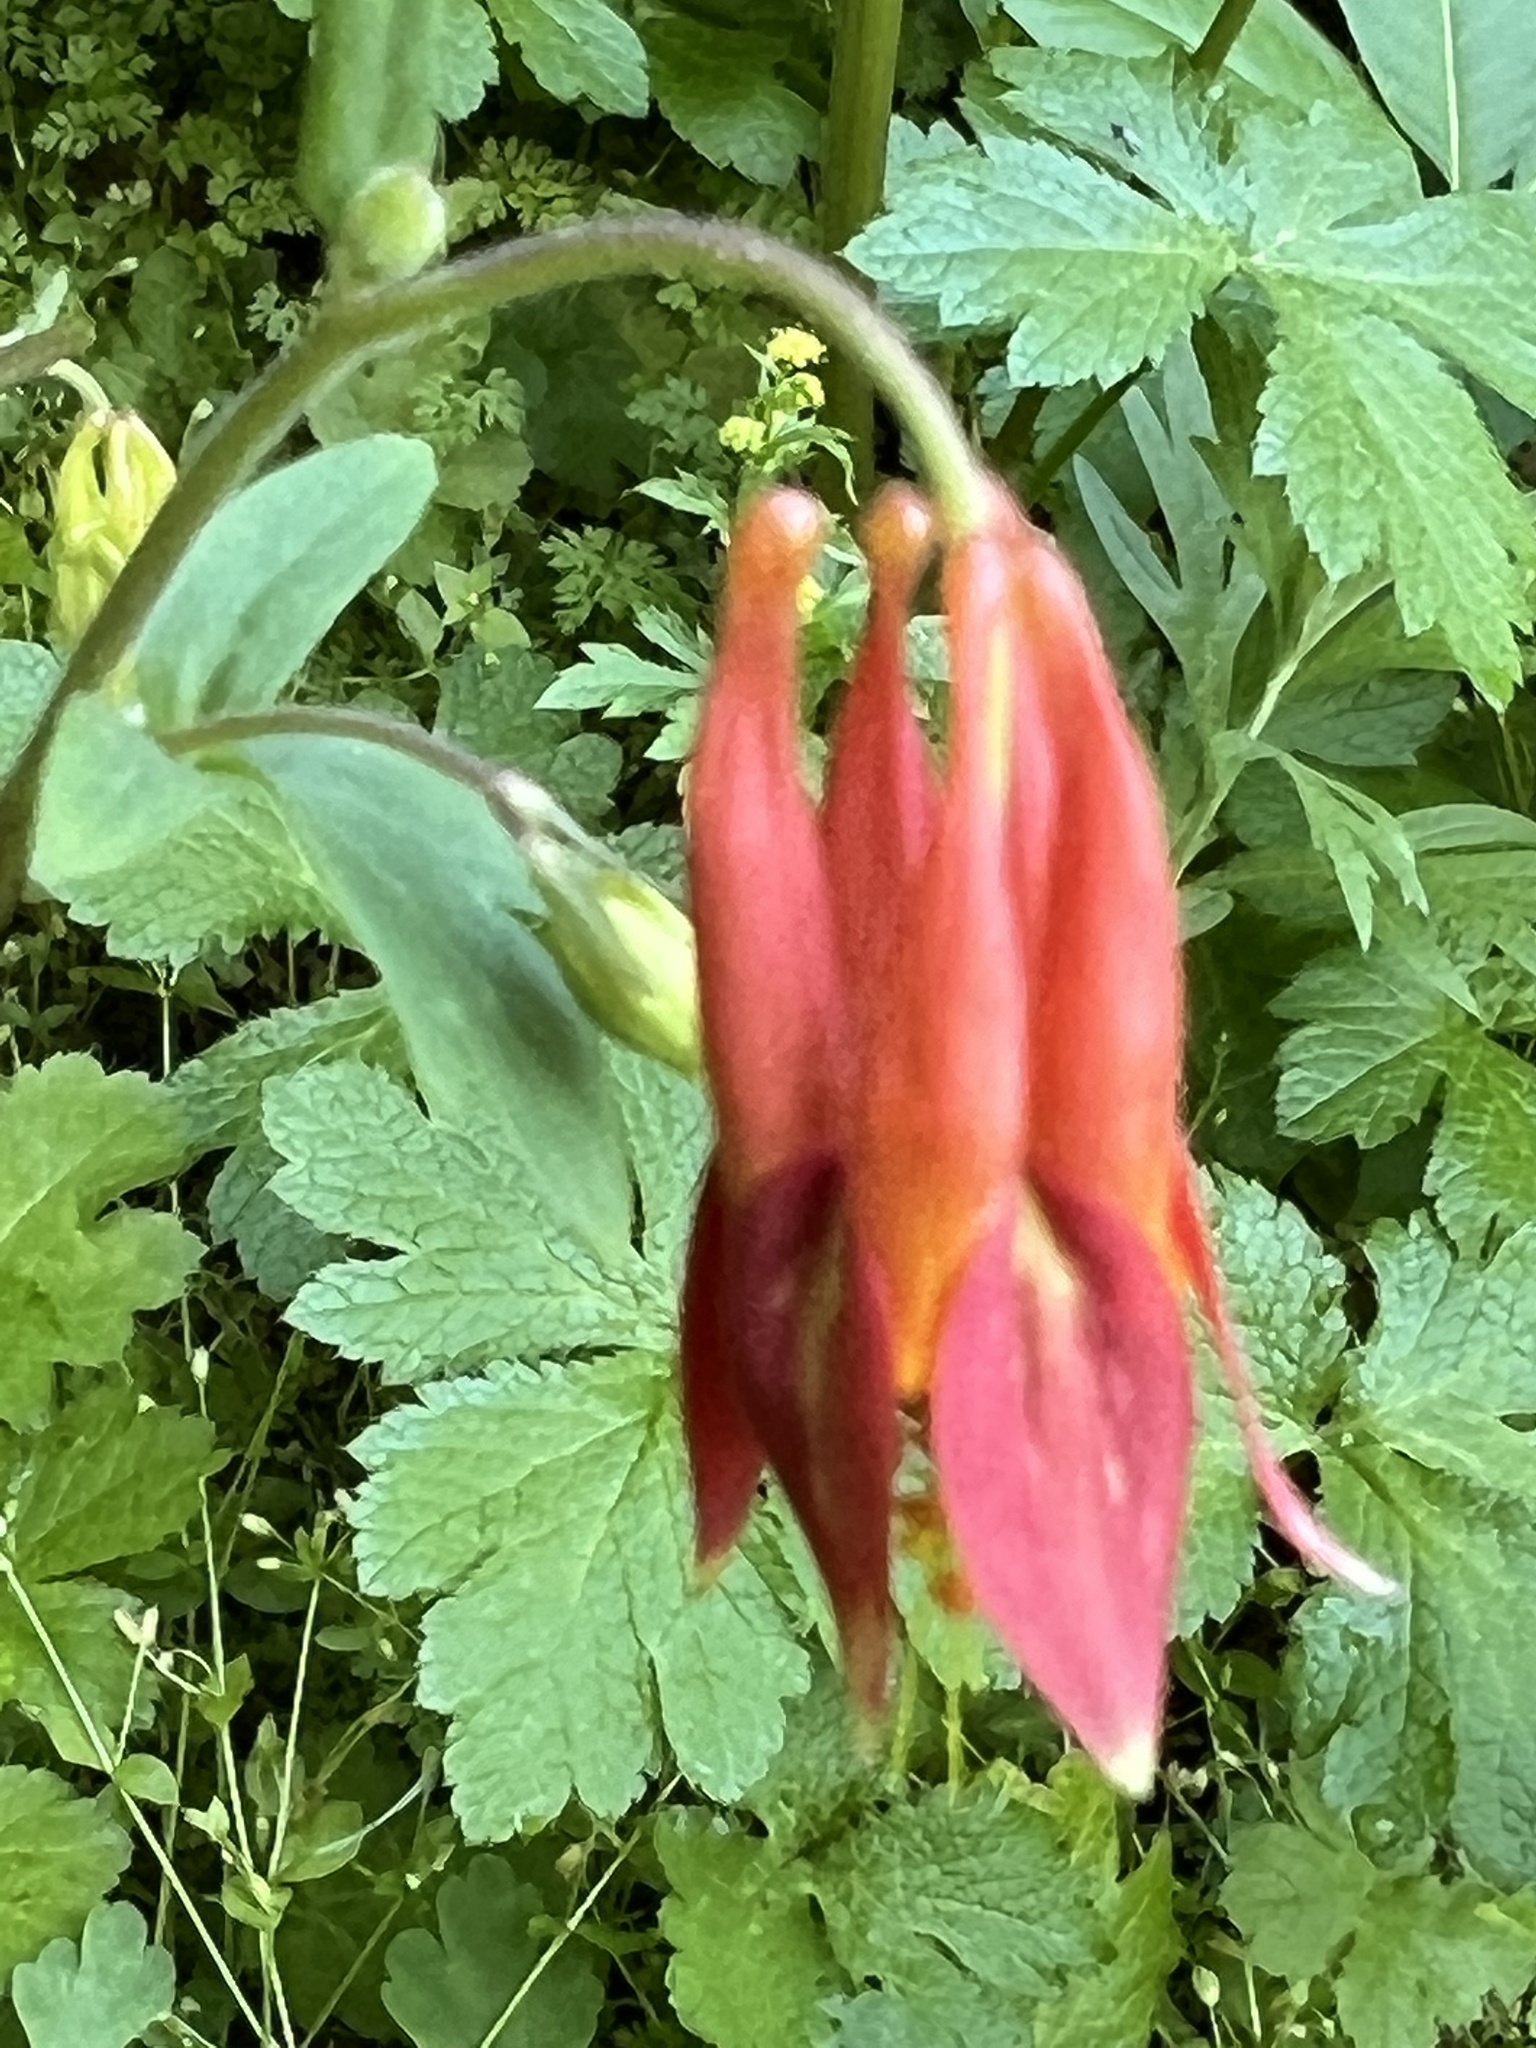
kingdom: Plantae
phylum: Tracheophyta
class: Magnoliopsida
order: Ranunculales
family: Ranunculaceae
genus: Aquilegia
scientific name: Aquilegia formosa
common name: Sitka columbine
